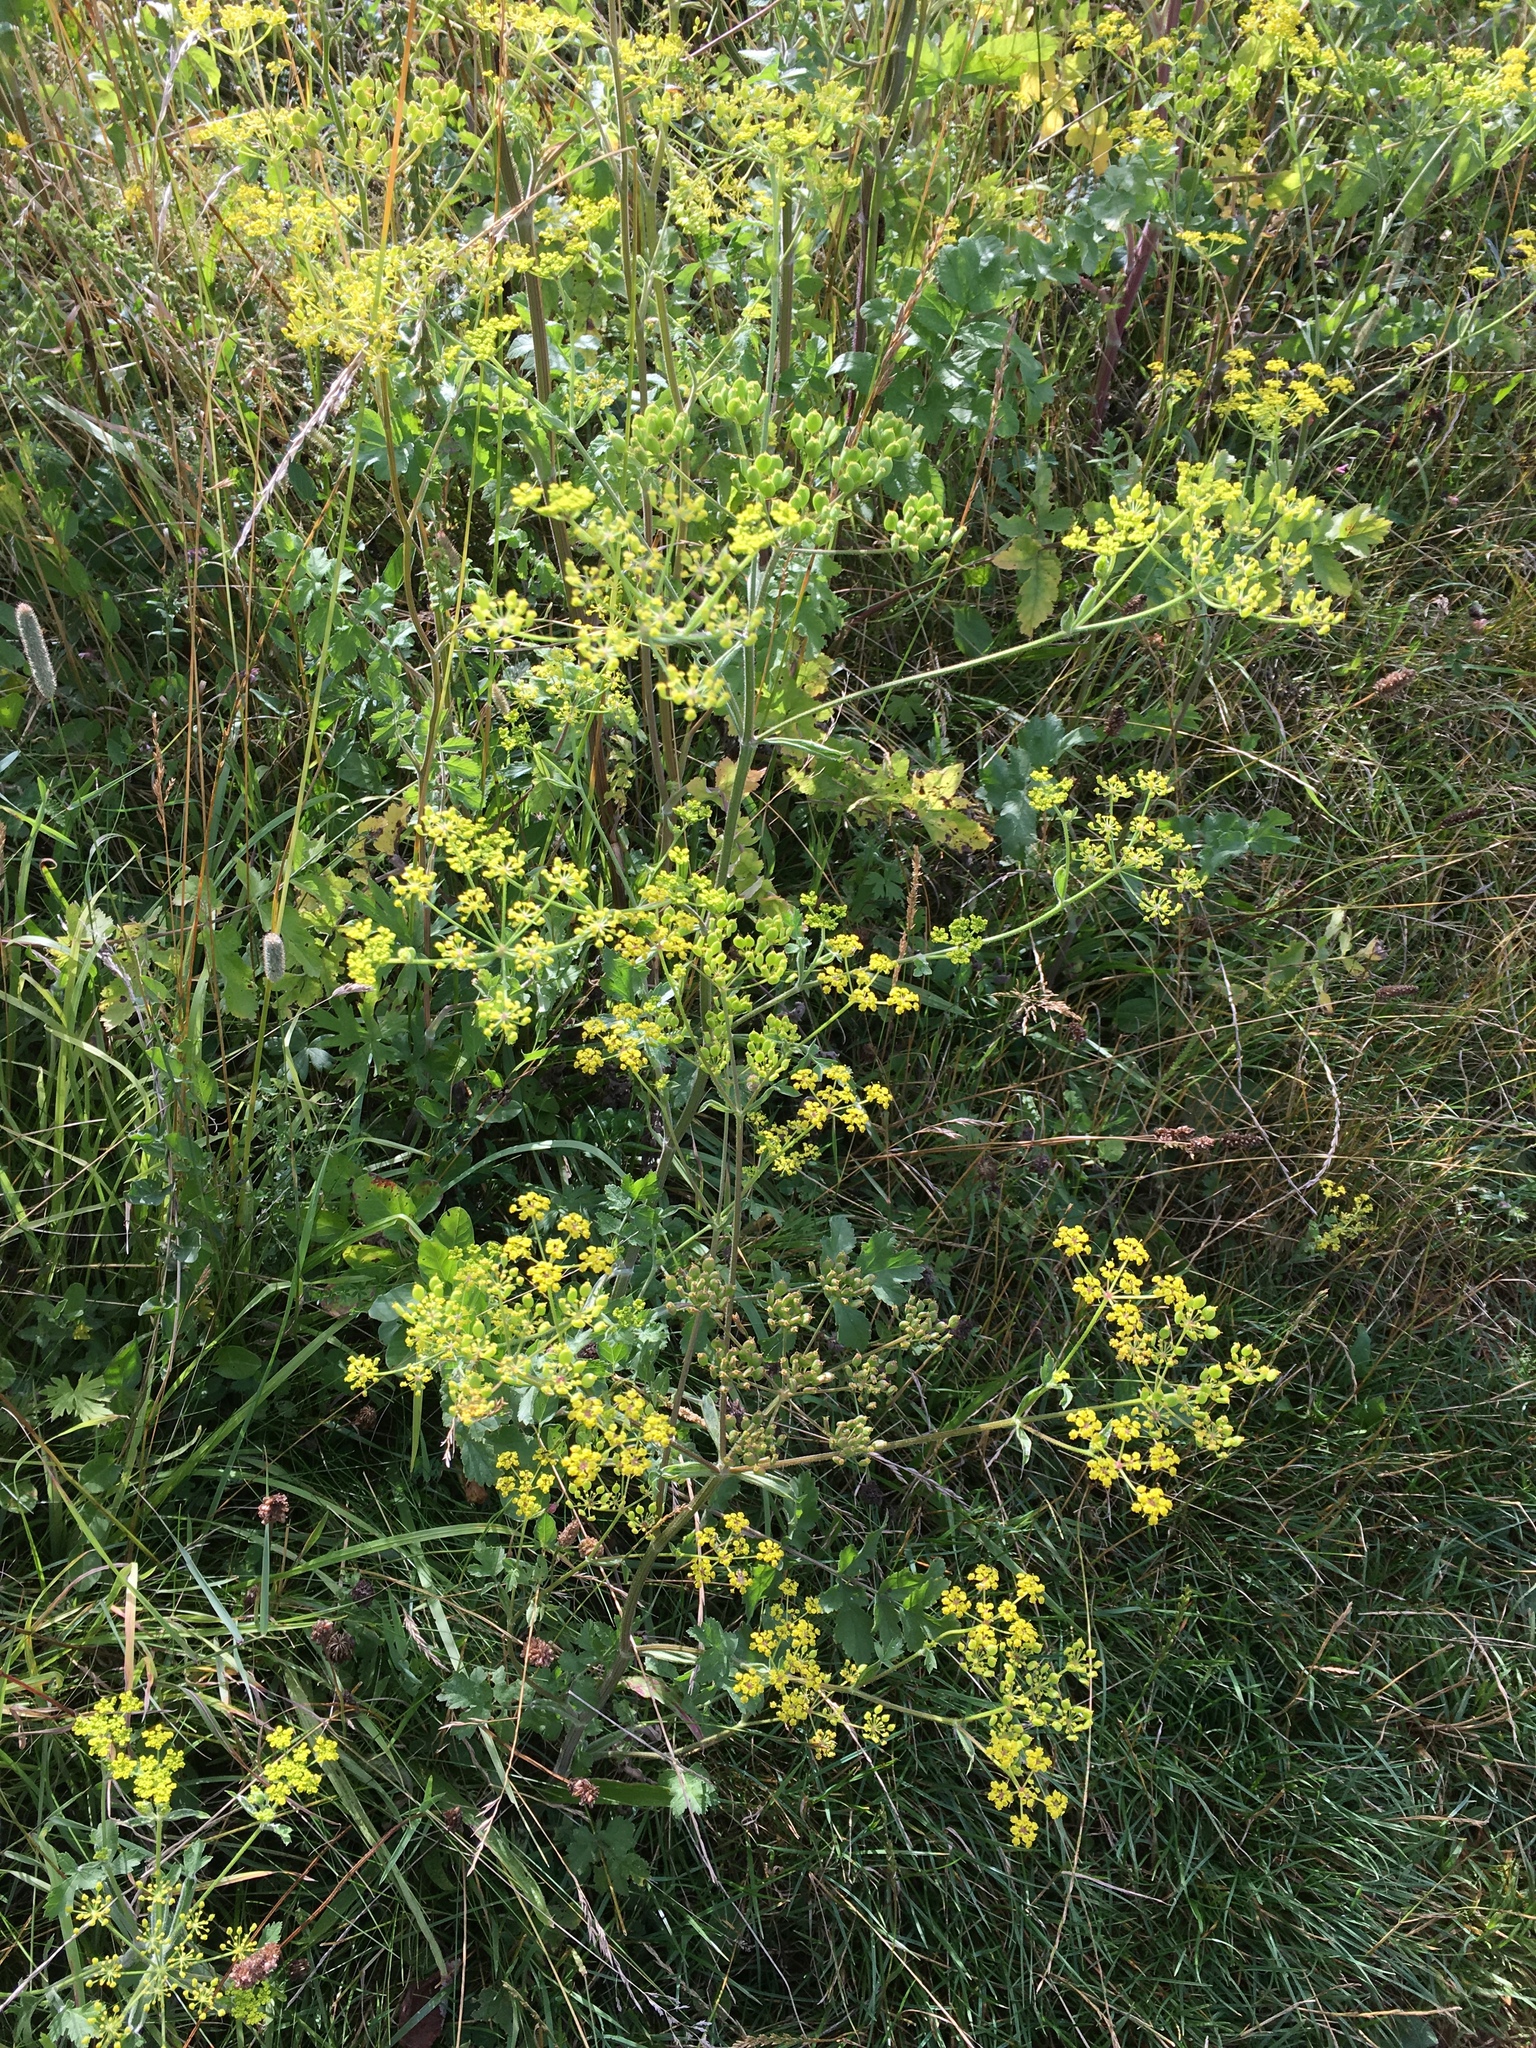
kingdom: Plantae
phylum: Tracheophyta
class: Magnoliopsida
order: Apiales
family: Apiaceae
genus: Pastinaca
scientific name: Pastinaca sativa
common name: Wild parsnip
